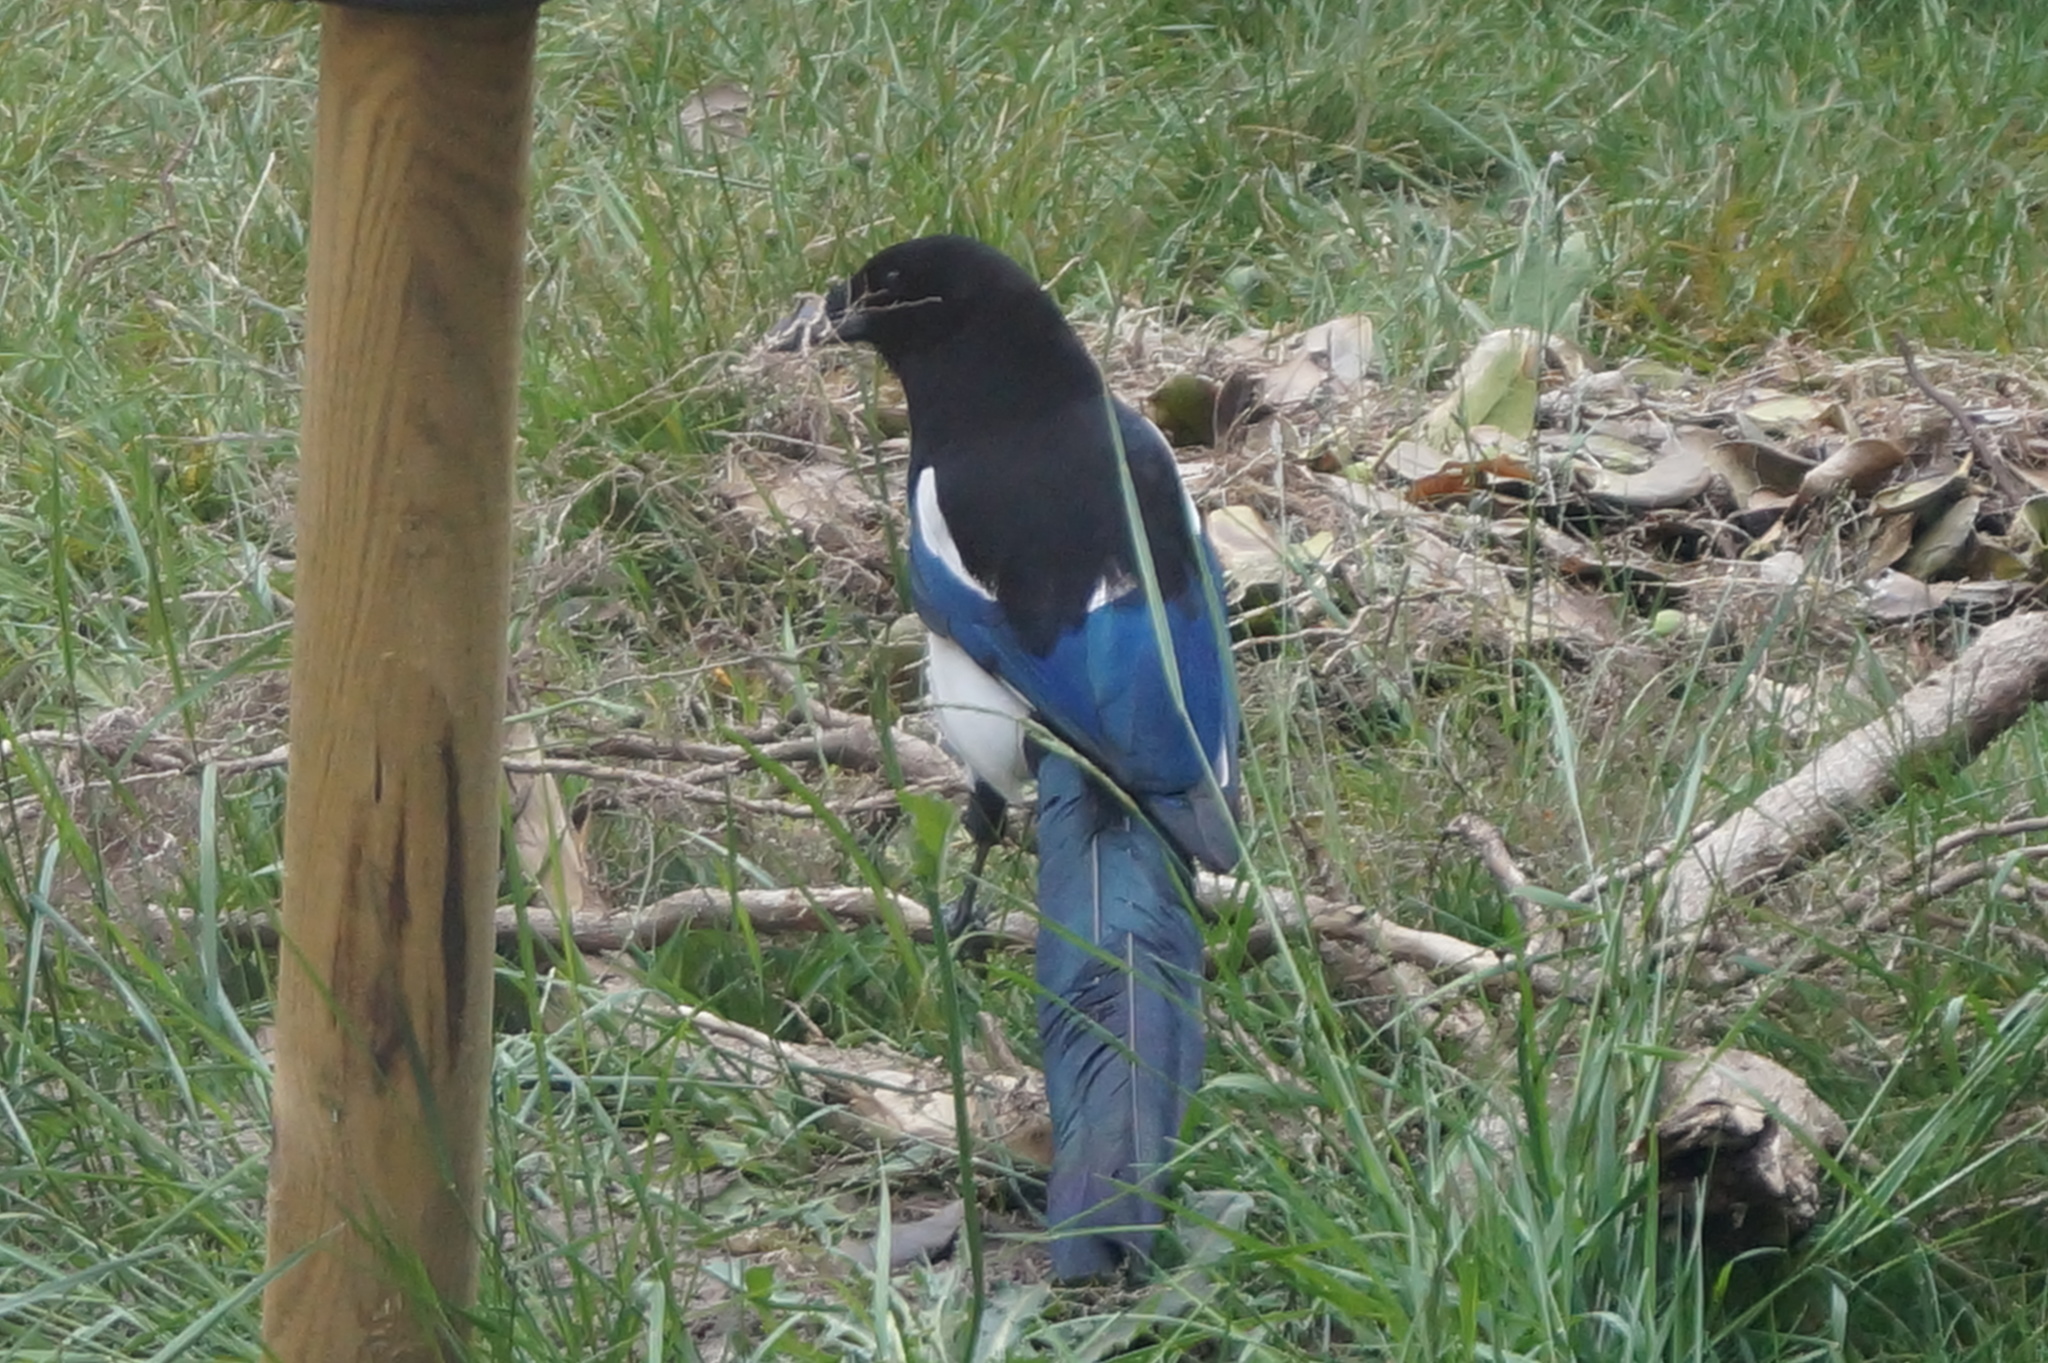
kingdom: Animalia
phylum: Chordata
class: Aves
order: Passeriformes
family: Corvidae
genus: Pica
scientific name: Pica pica
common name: Eurasian magpie
